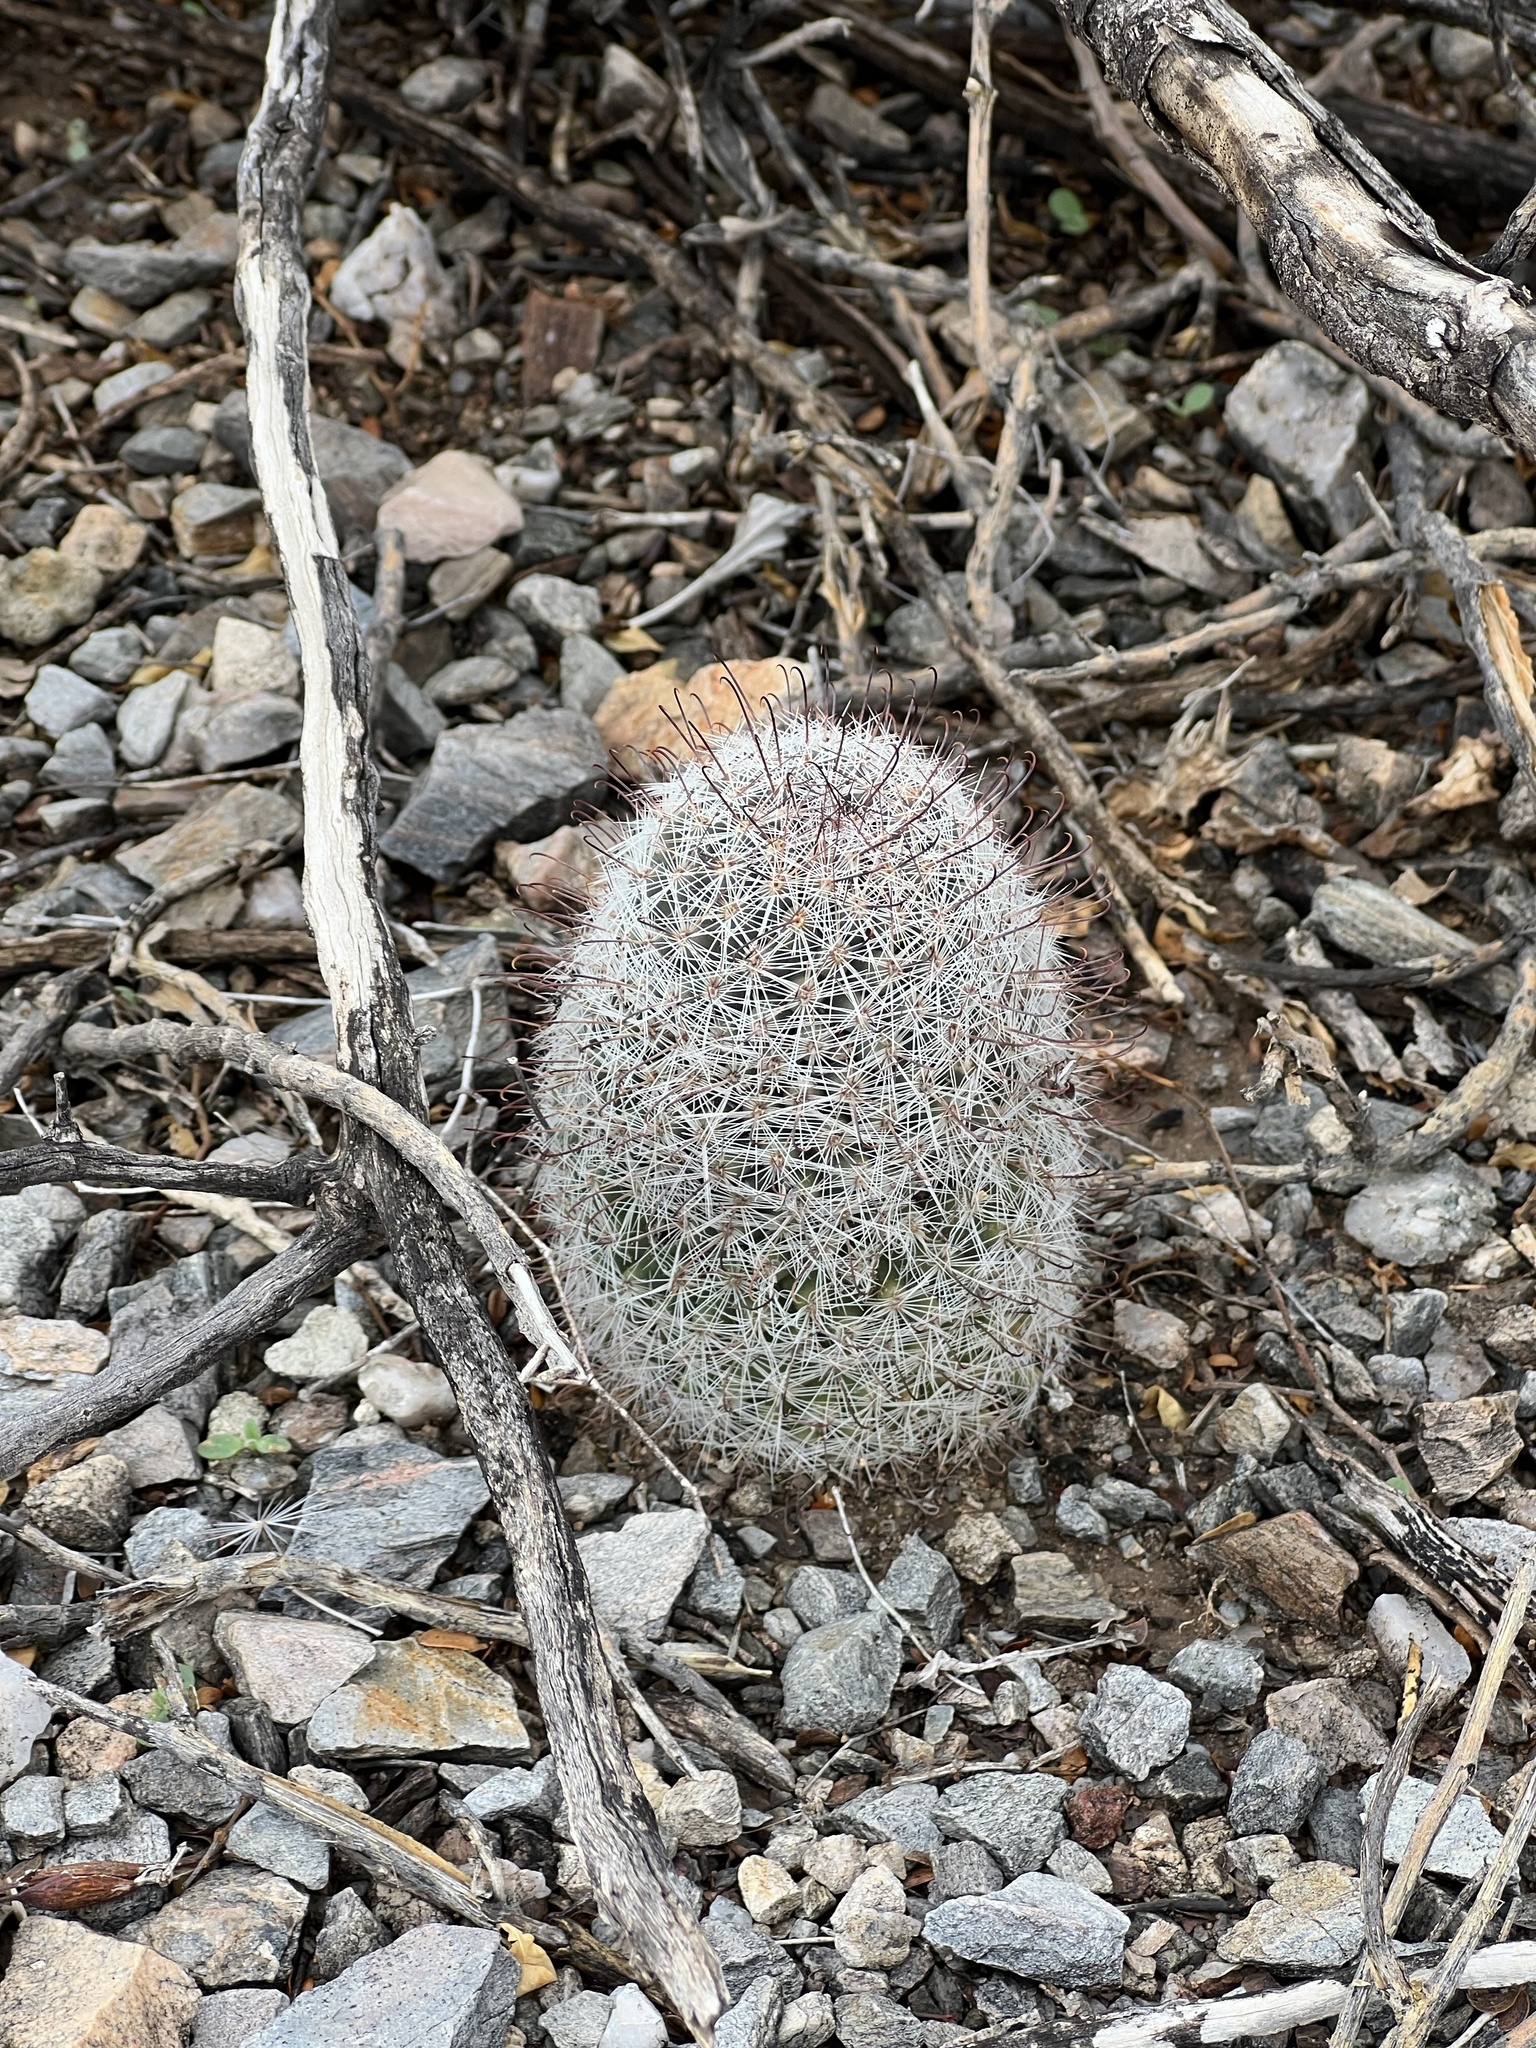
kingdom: Plantae
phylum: Tracheophyta
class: Magnoliopsida
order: Caryophyllales
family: Cactaceae
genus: Cochemiea
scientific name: Cochemiea grahamii
